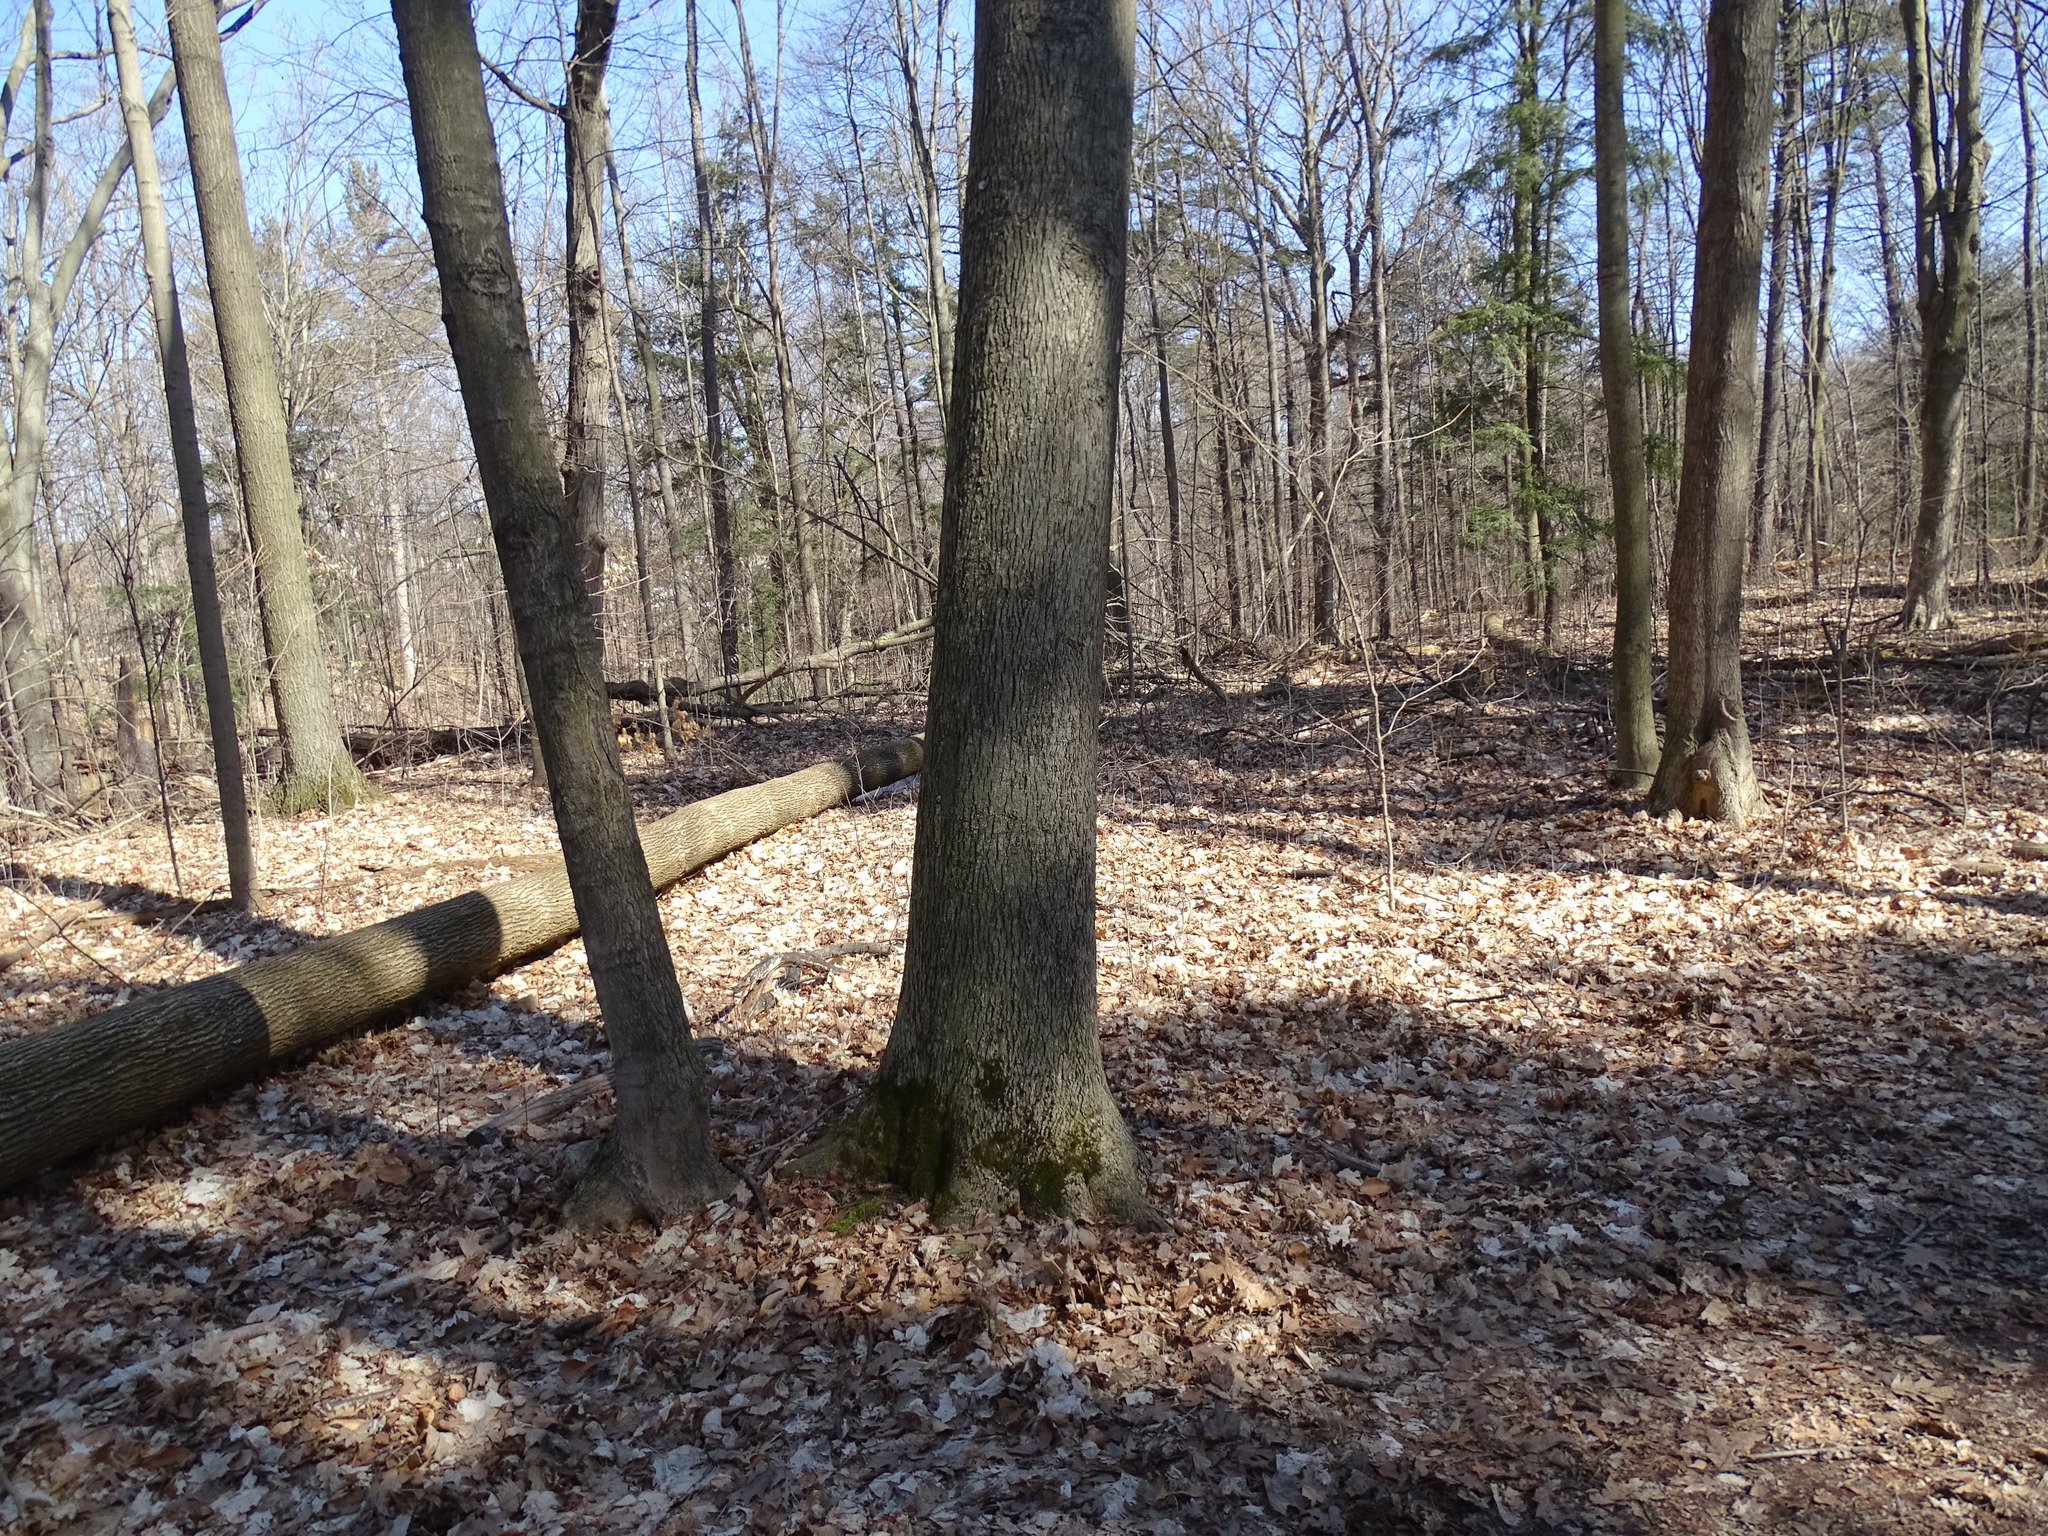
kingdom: Plantae
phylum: Tracheophyta
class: Magnoliopsida
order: Fagales
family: Juglandaceae
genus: Carya
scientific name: Carya cordiformis
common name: Bitternut hickory
